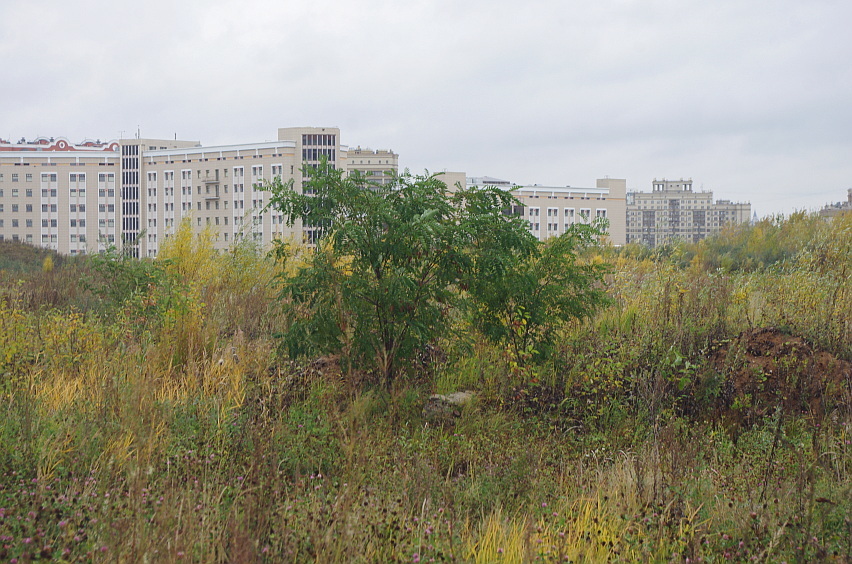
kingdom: Plantae
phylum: Tracheophyta
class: Magnoliopsida
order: Fabales
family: Fabaceae
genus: Robinia
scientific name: Robinia pseudoacacia
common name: Black locust
